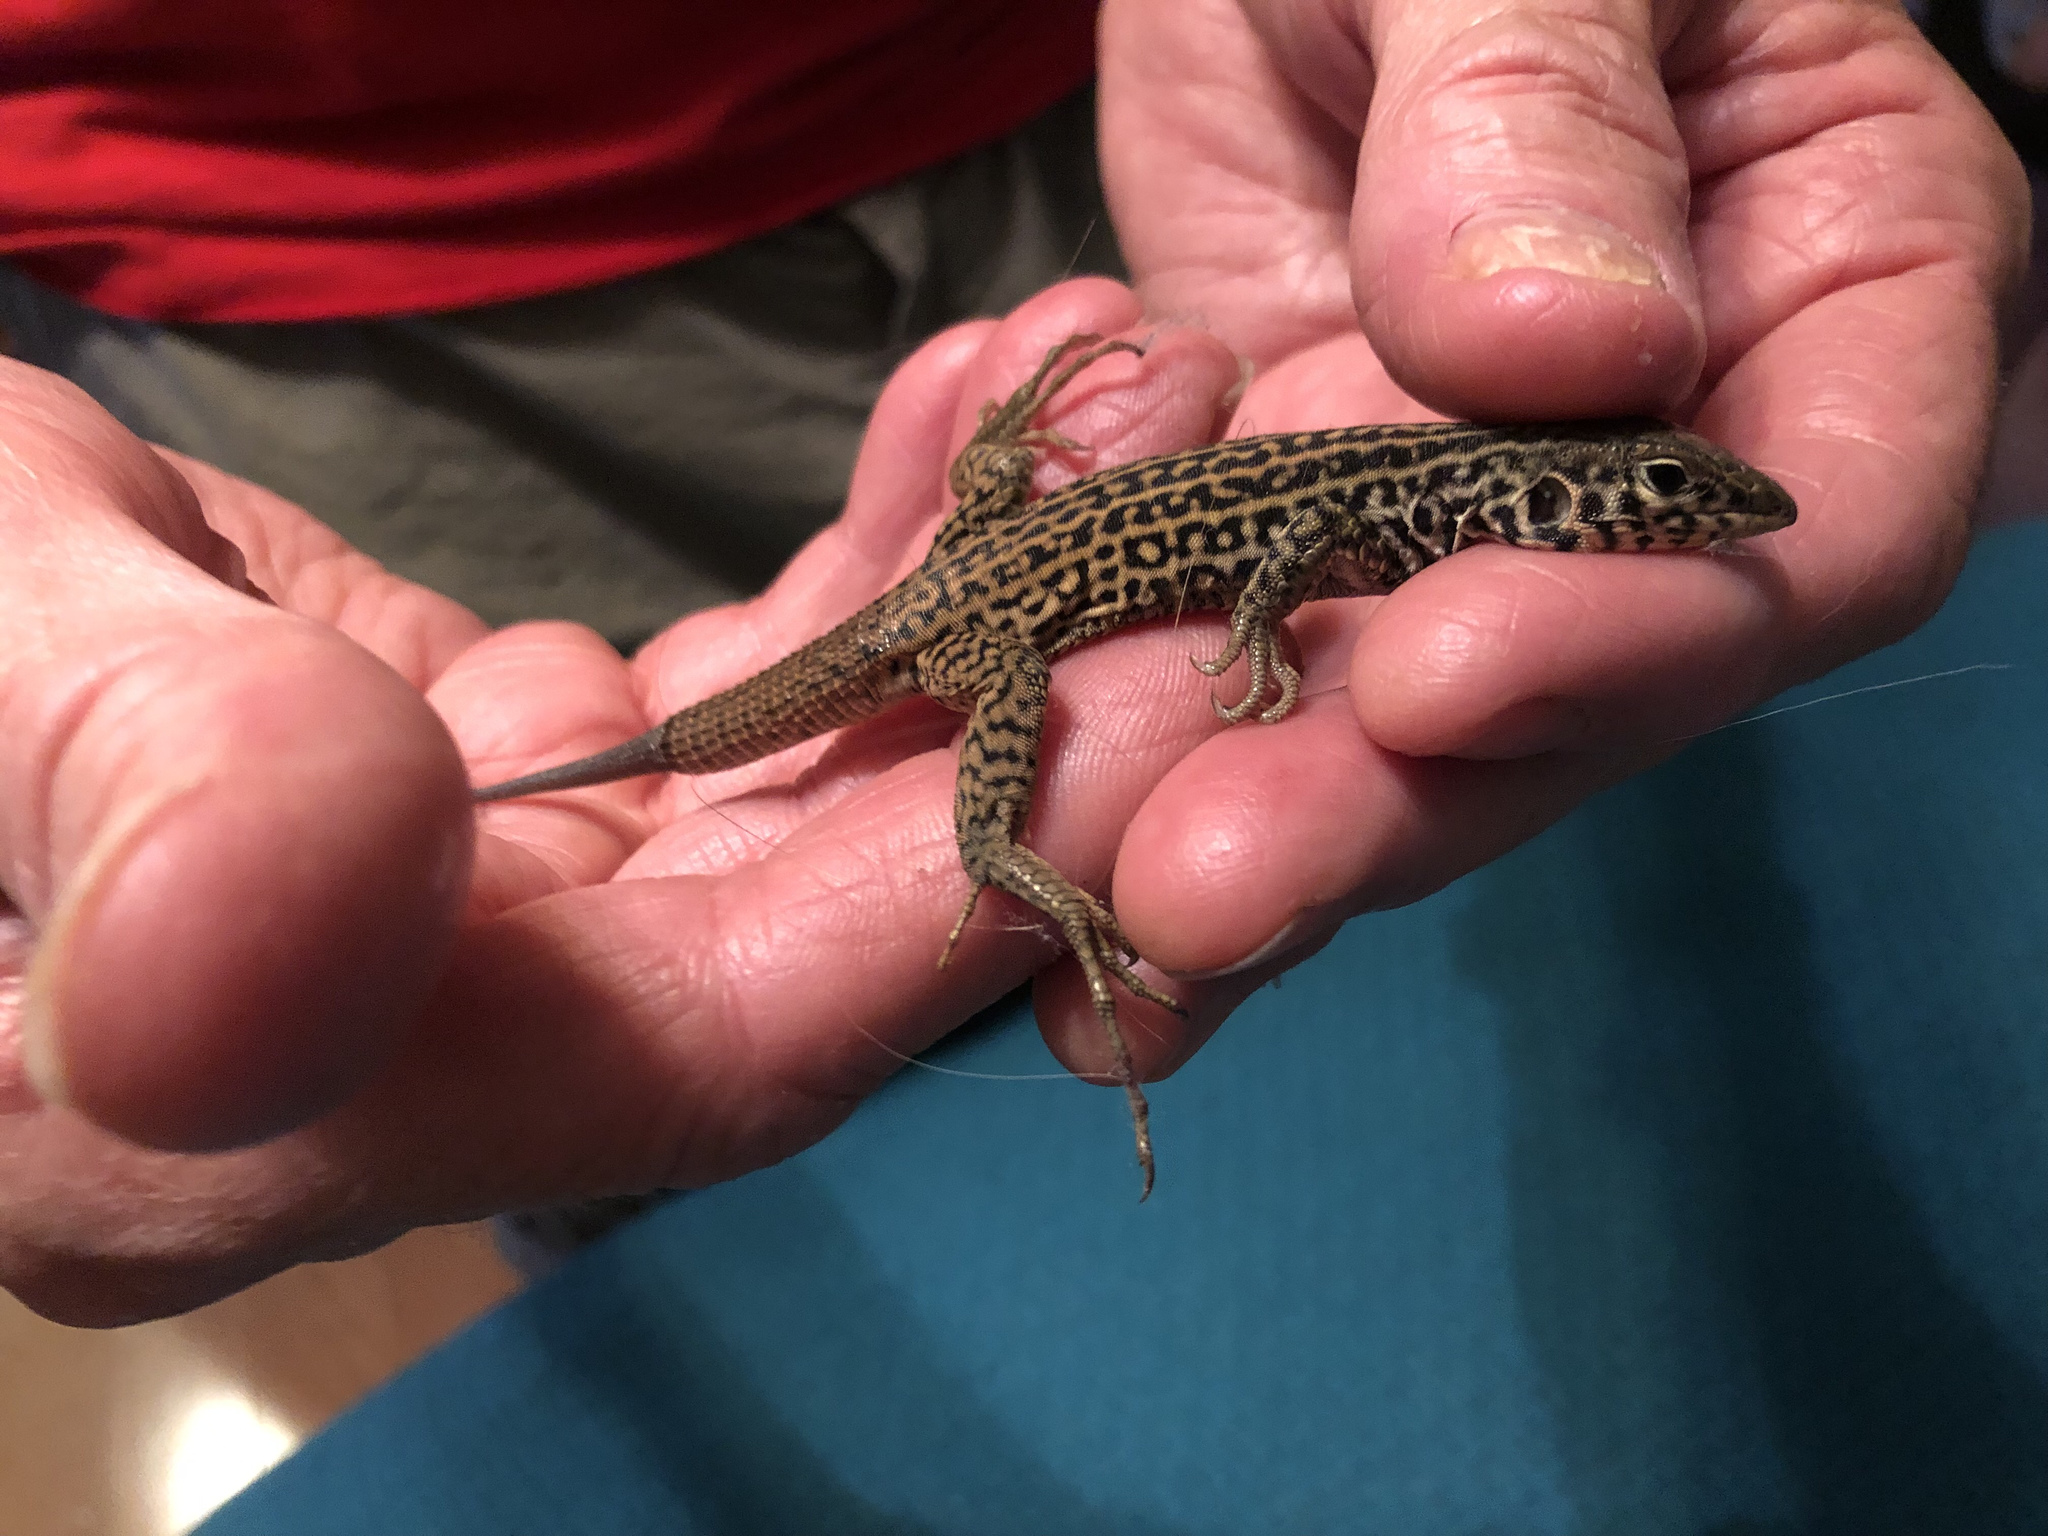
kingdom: Animalia
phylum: Chordata
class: Squamata
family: Teiidae
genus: Aspidoscelis
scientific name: Aspidoscelis tigris
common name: Tiger whiptail
